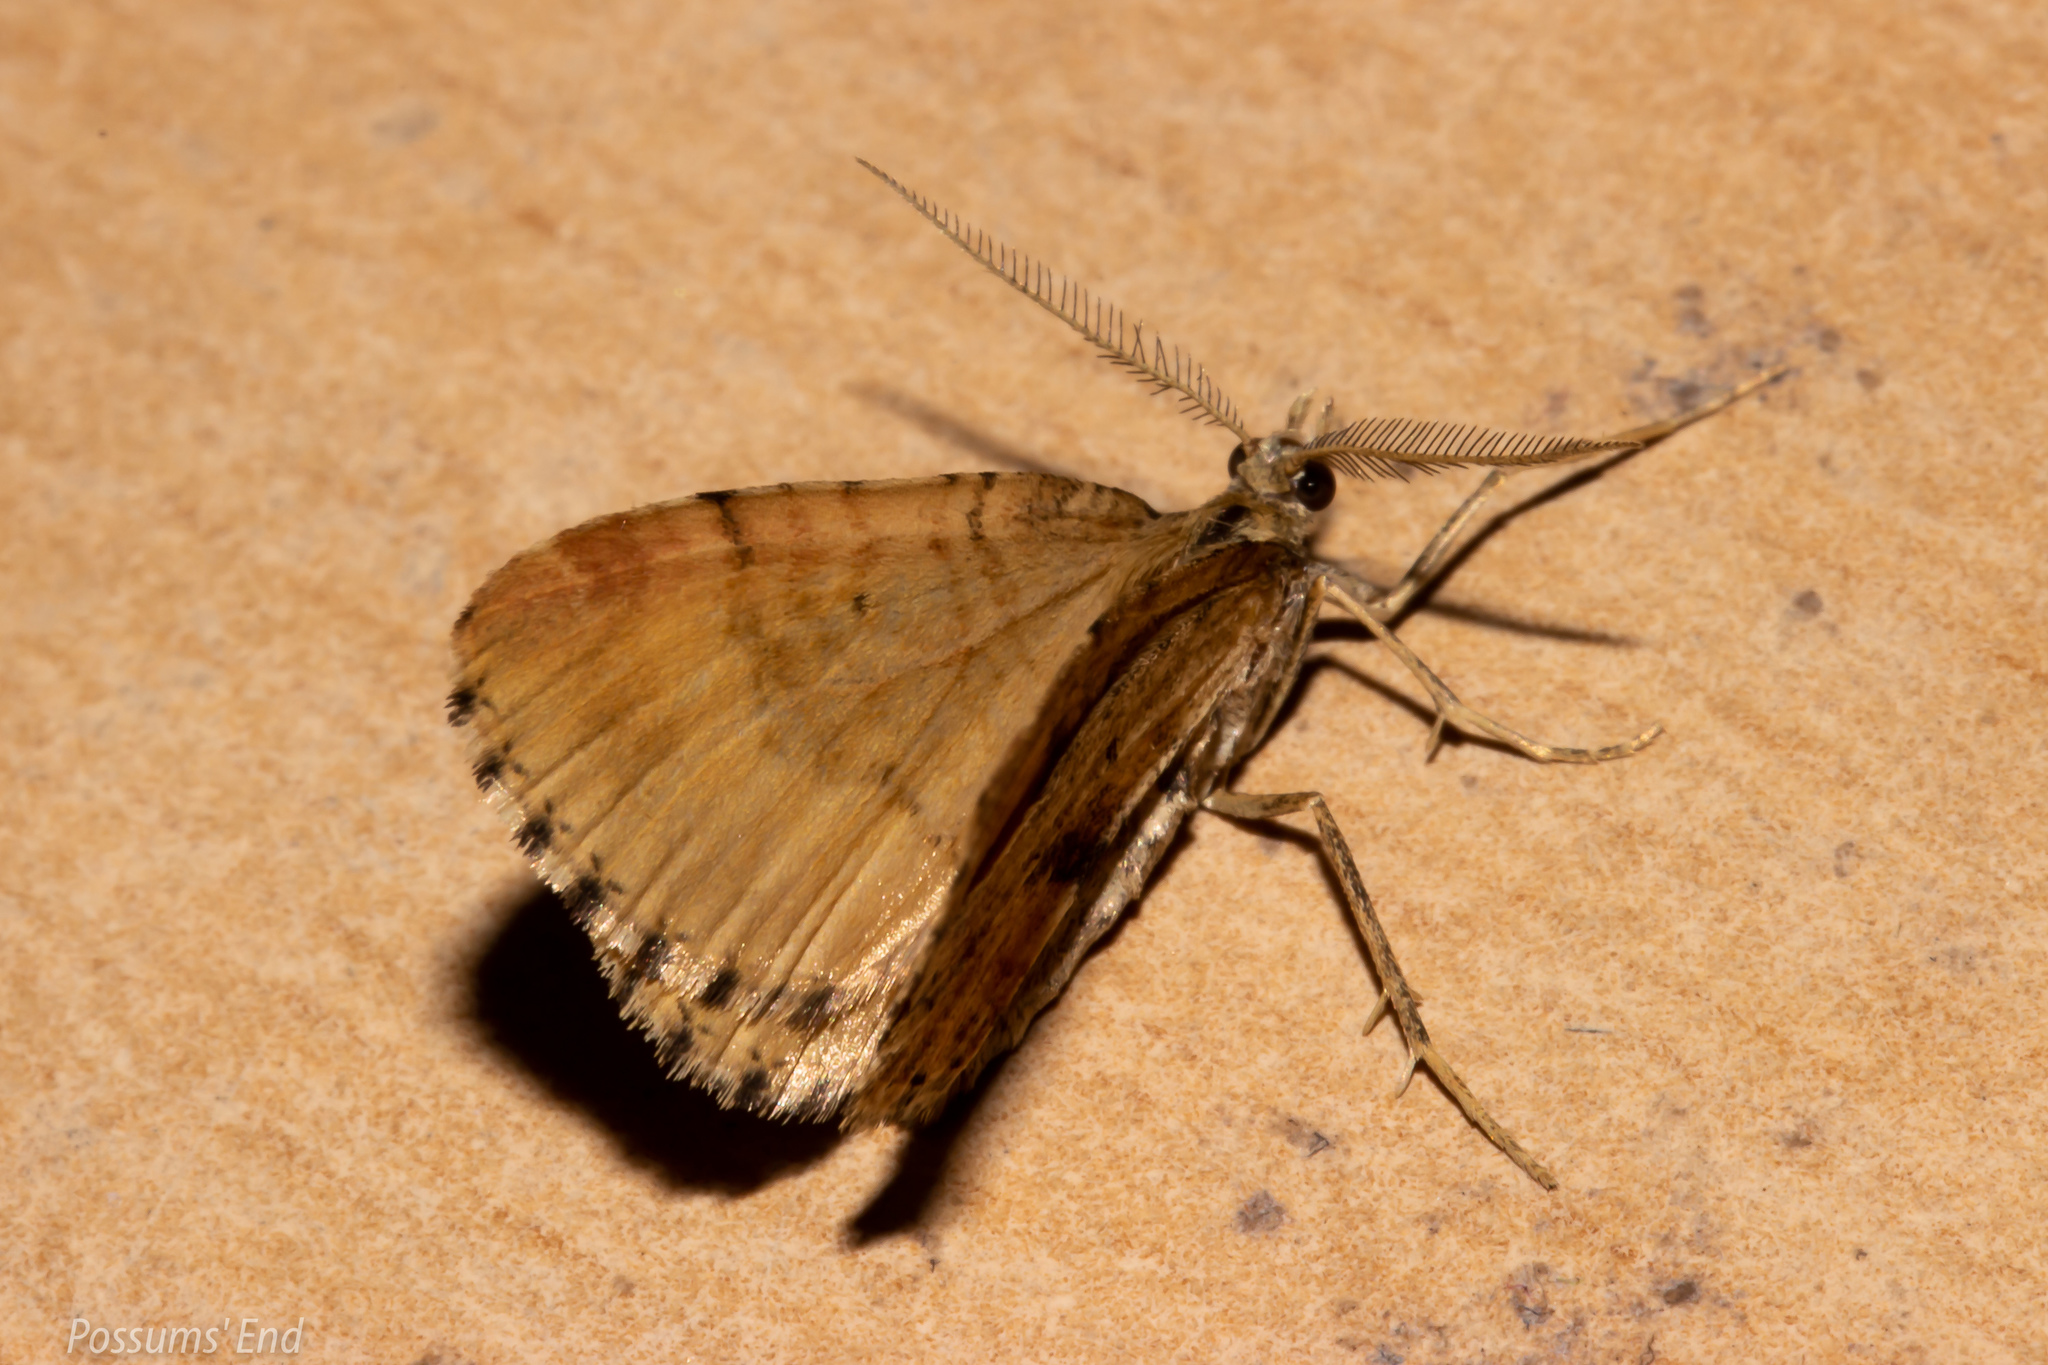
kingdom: Animalia
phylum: Arthropoda
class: Insecta
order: Lepidoptera
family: Geometridae
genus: Asaphodes
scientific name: Asaphodes aegrota
